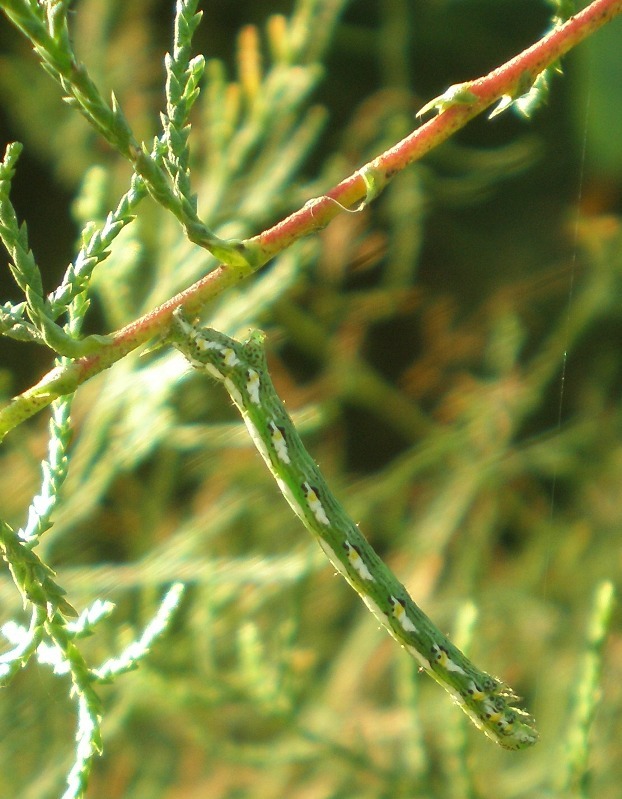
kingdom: Animalia
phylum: Arthropoda
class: Insecta
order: Lepidoptera
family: Geometridae
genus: Chiasmia
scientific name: Chiasmia aestimaria
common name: Tamarisk peacock
